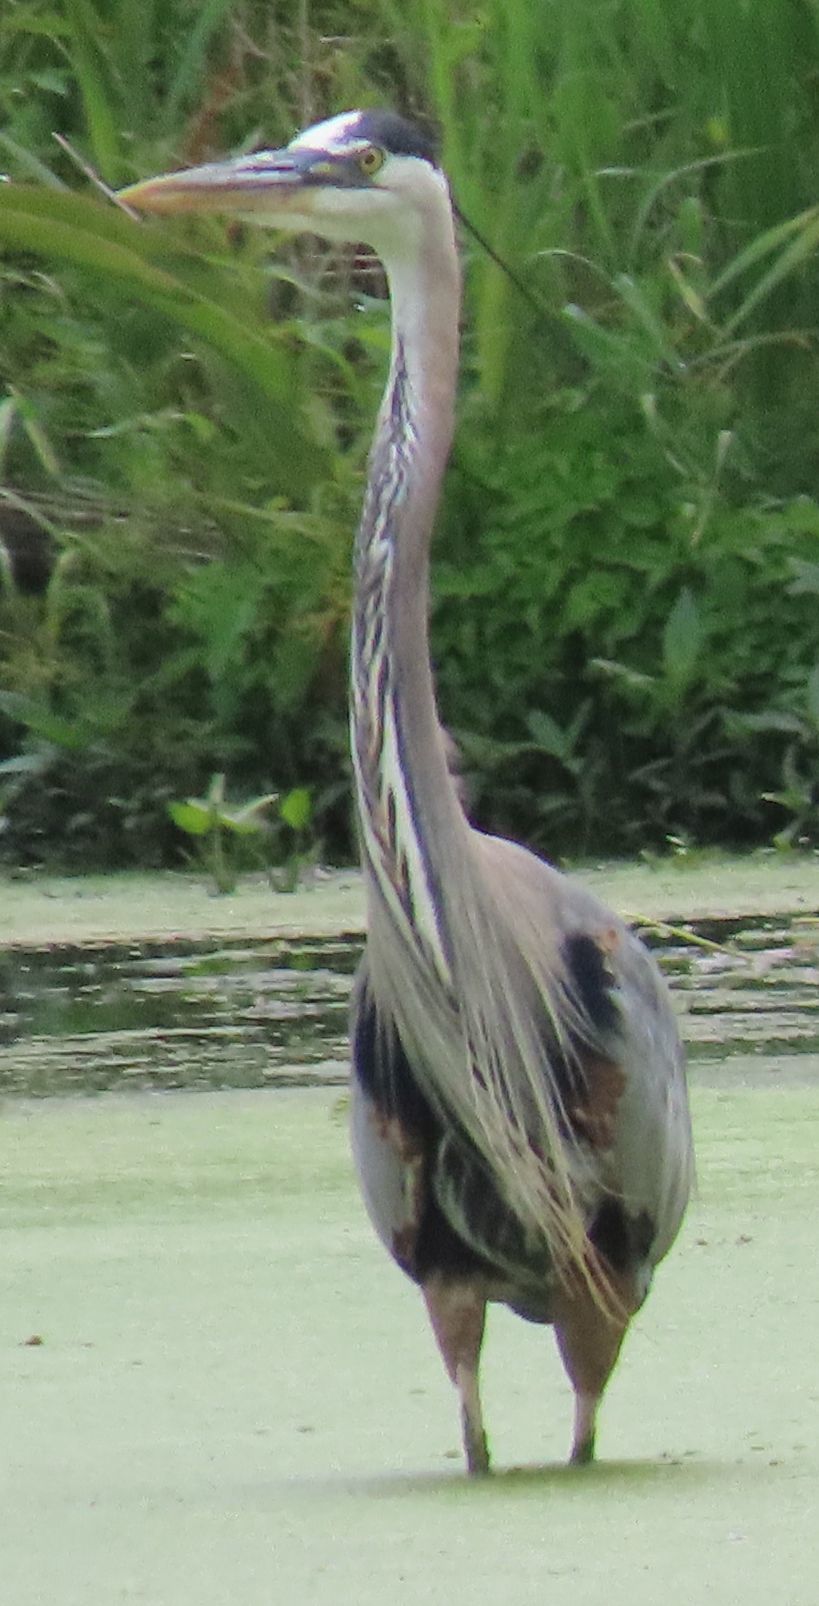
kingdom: Animalia
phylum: Chordata
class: Aves
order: Pelecaniformes
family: Ardeidae
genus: Ardea
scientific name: Ardea herodias
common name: Great blue heron
